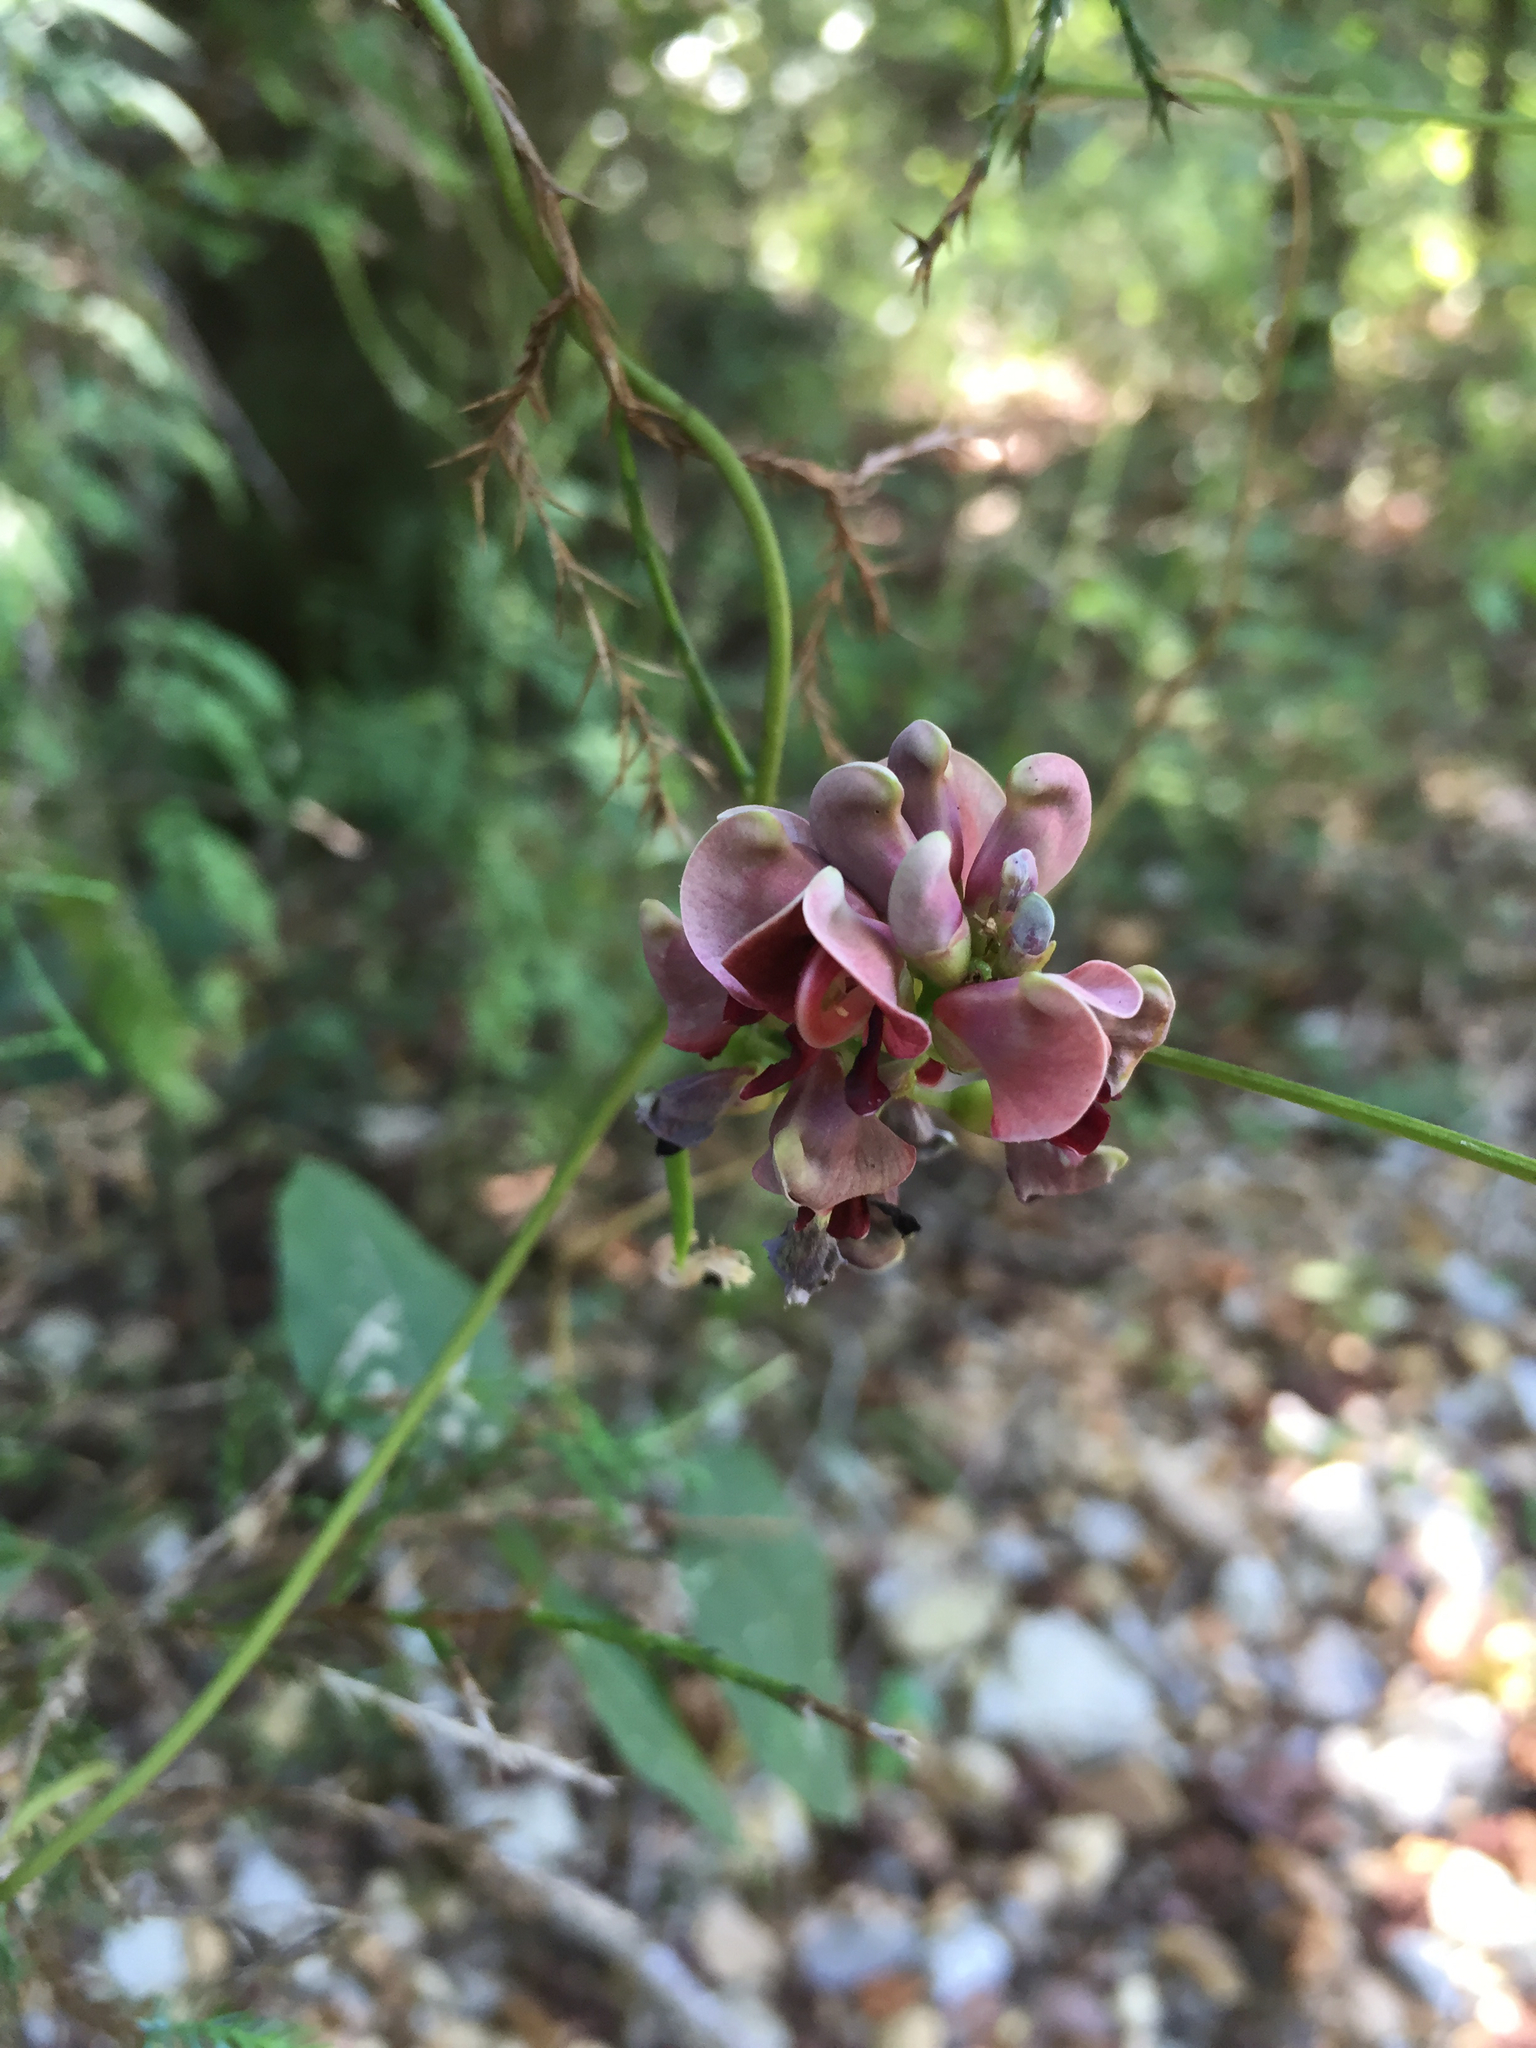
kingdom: Plantae
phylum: Tracheophyta
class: Magnoliopsida
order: Fabales
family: Fabaceae
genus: Apios
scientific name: Apios americana
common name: American potato-bean
